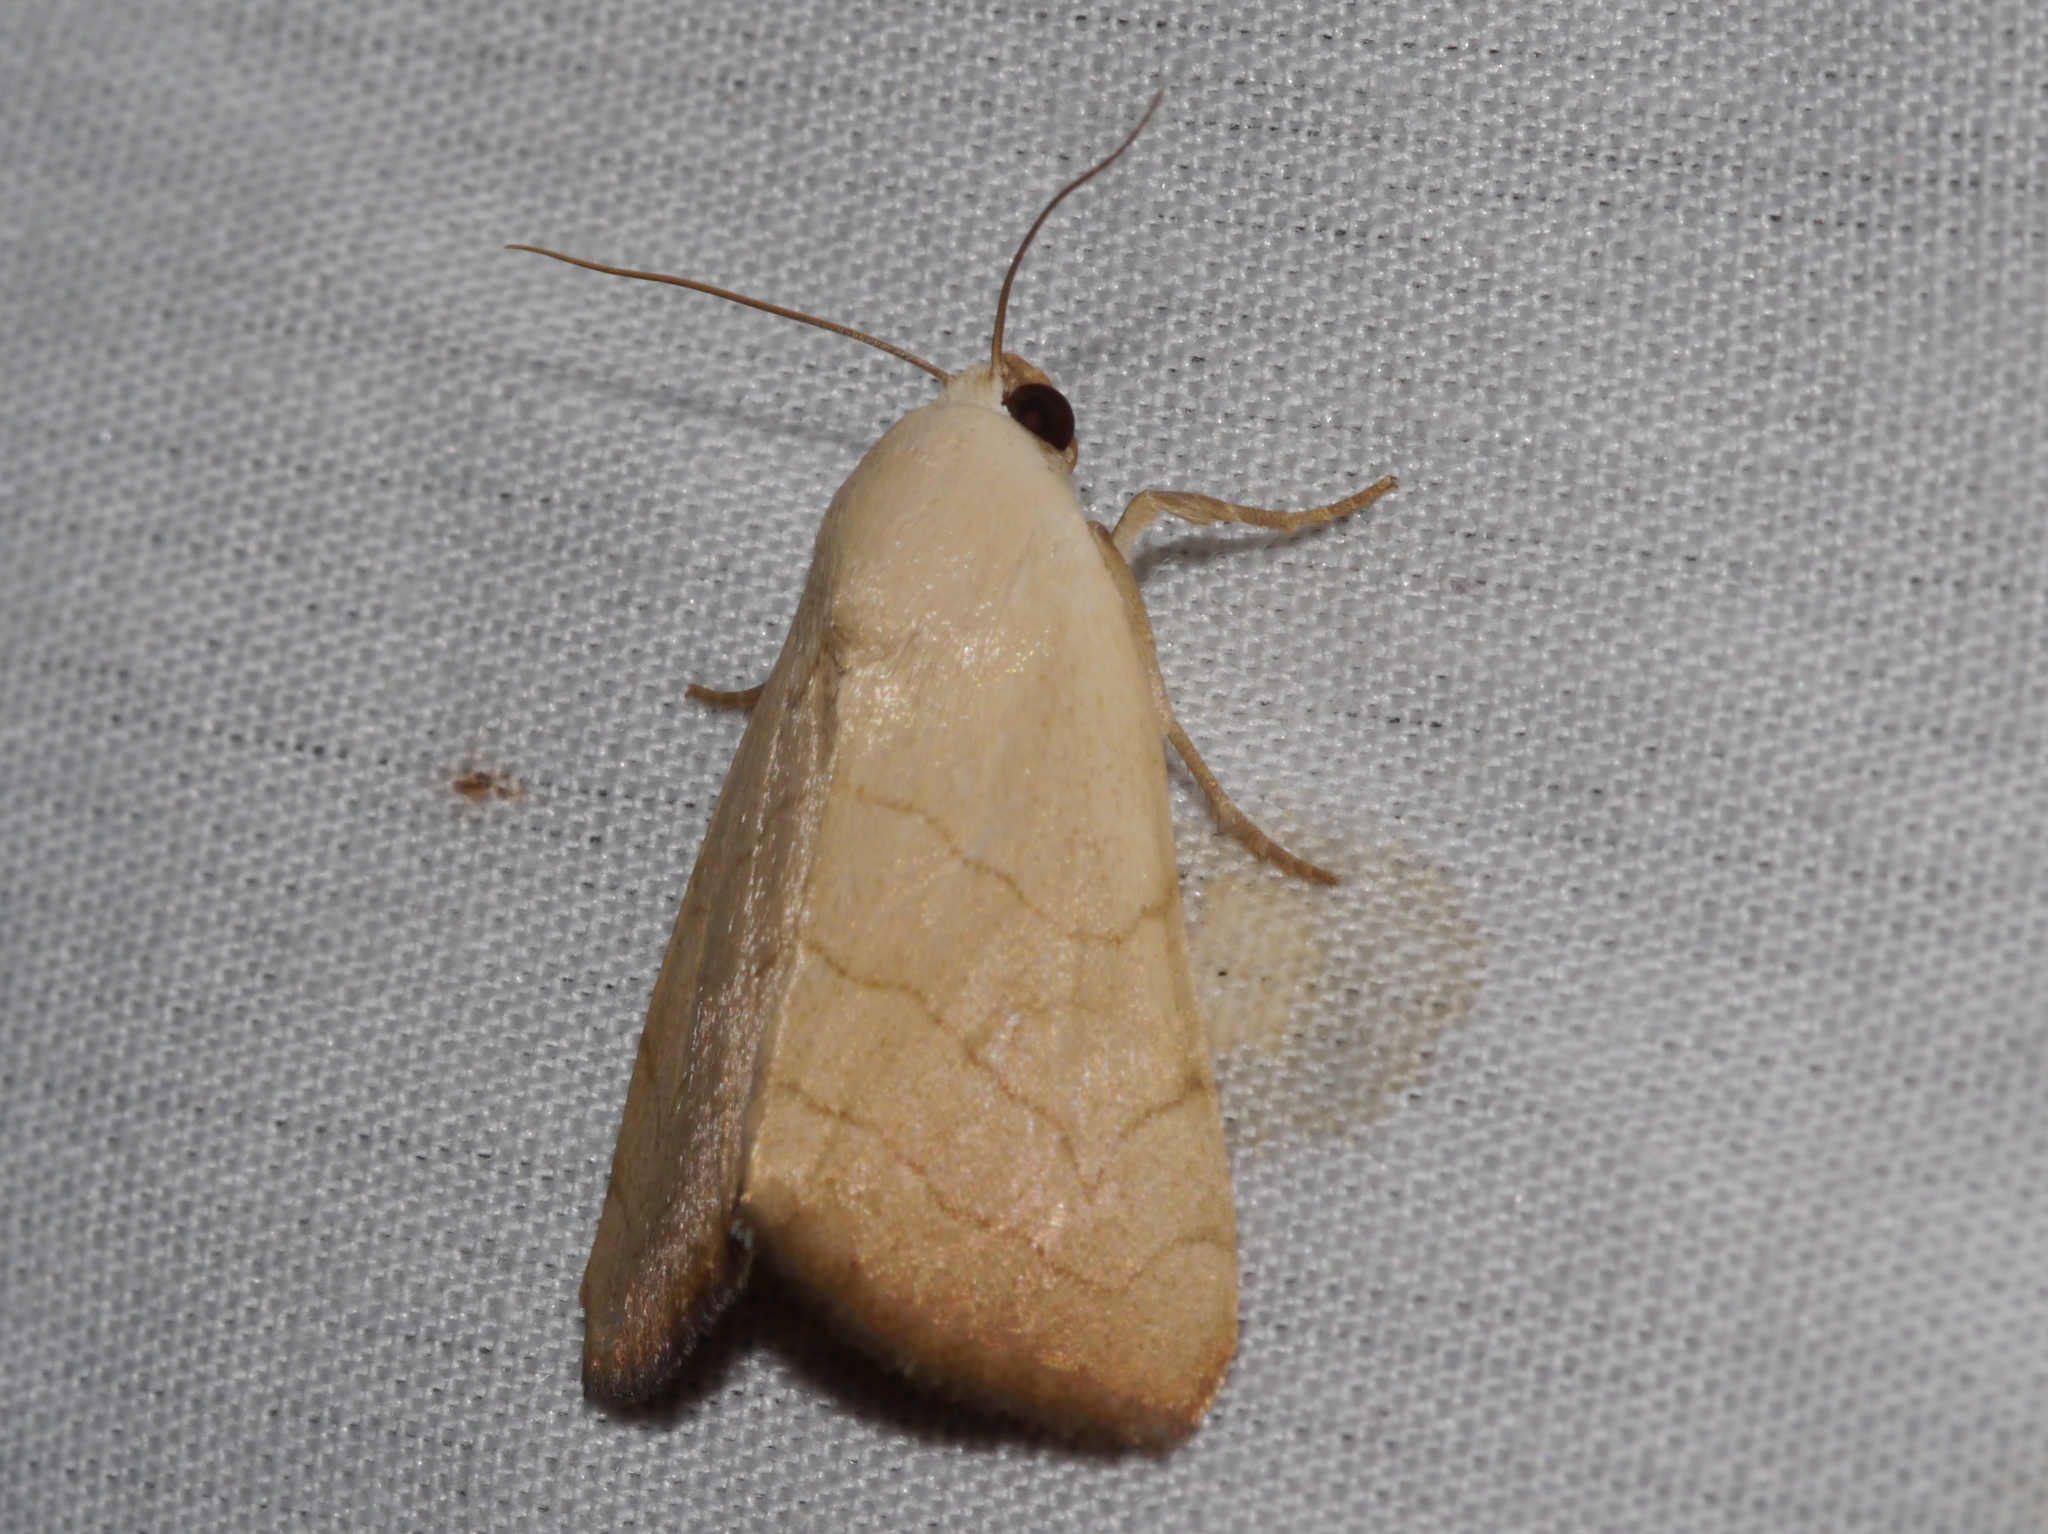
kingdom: Animalia
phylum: Arthropoda
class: Insecta
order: Lepidoptera
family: Noctuidae
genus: Bagisara
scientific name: Bagisara buxea
